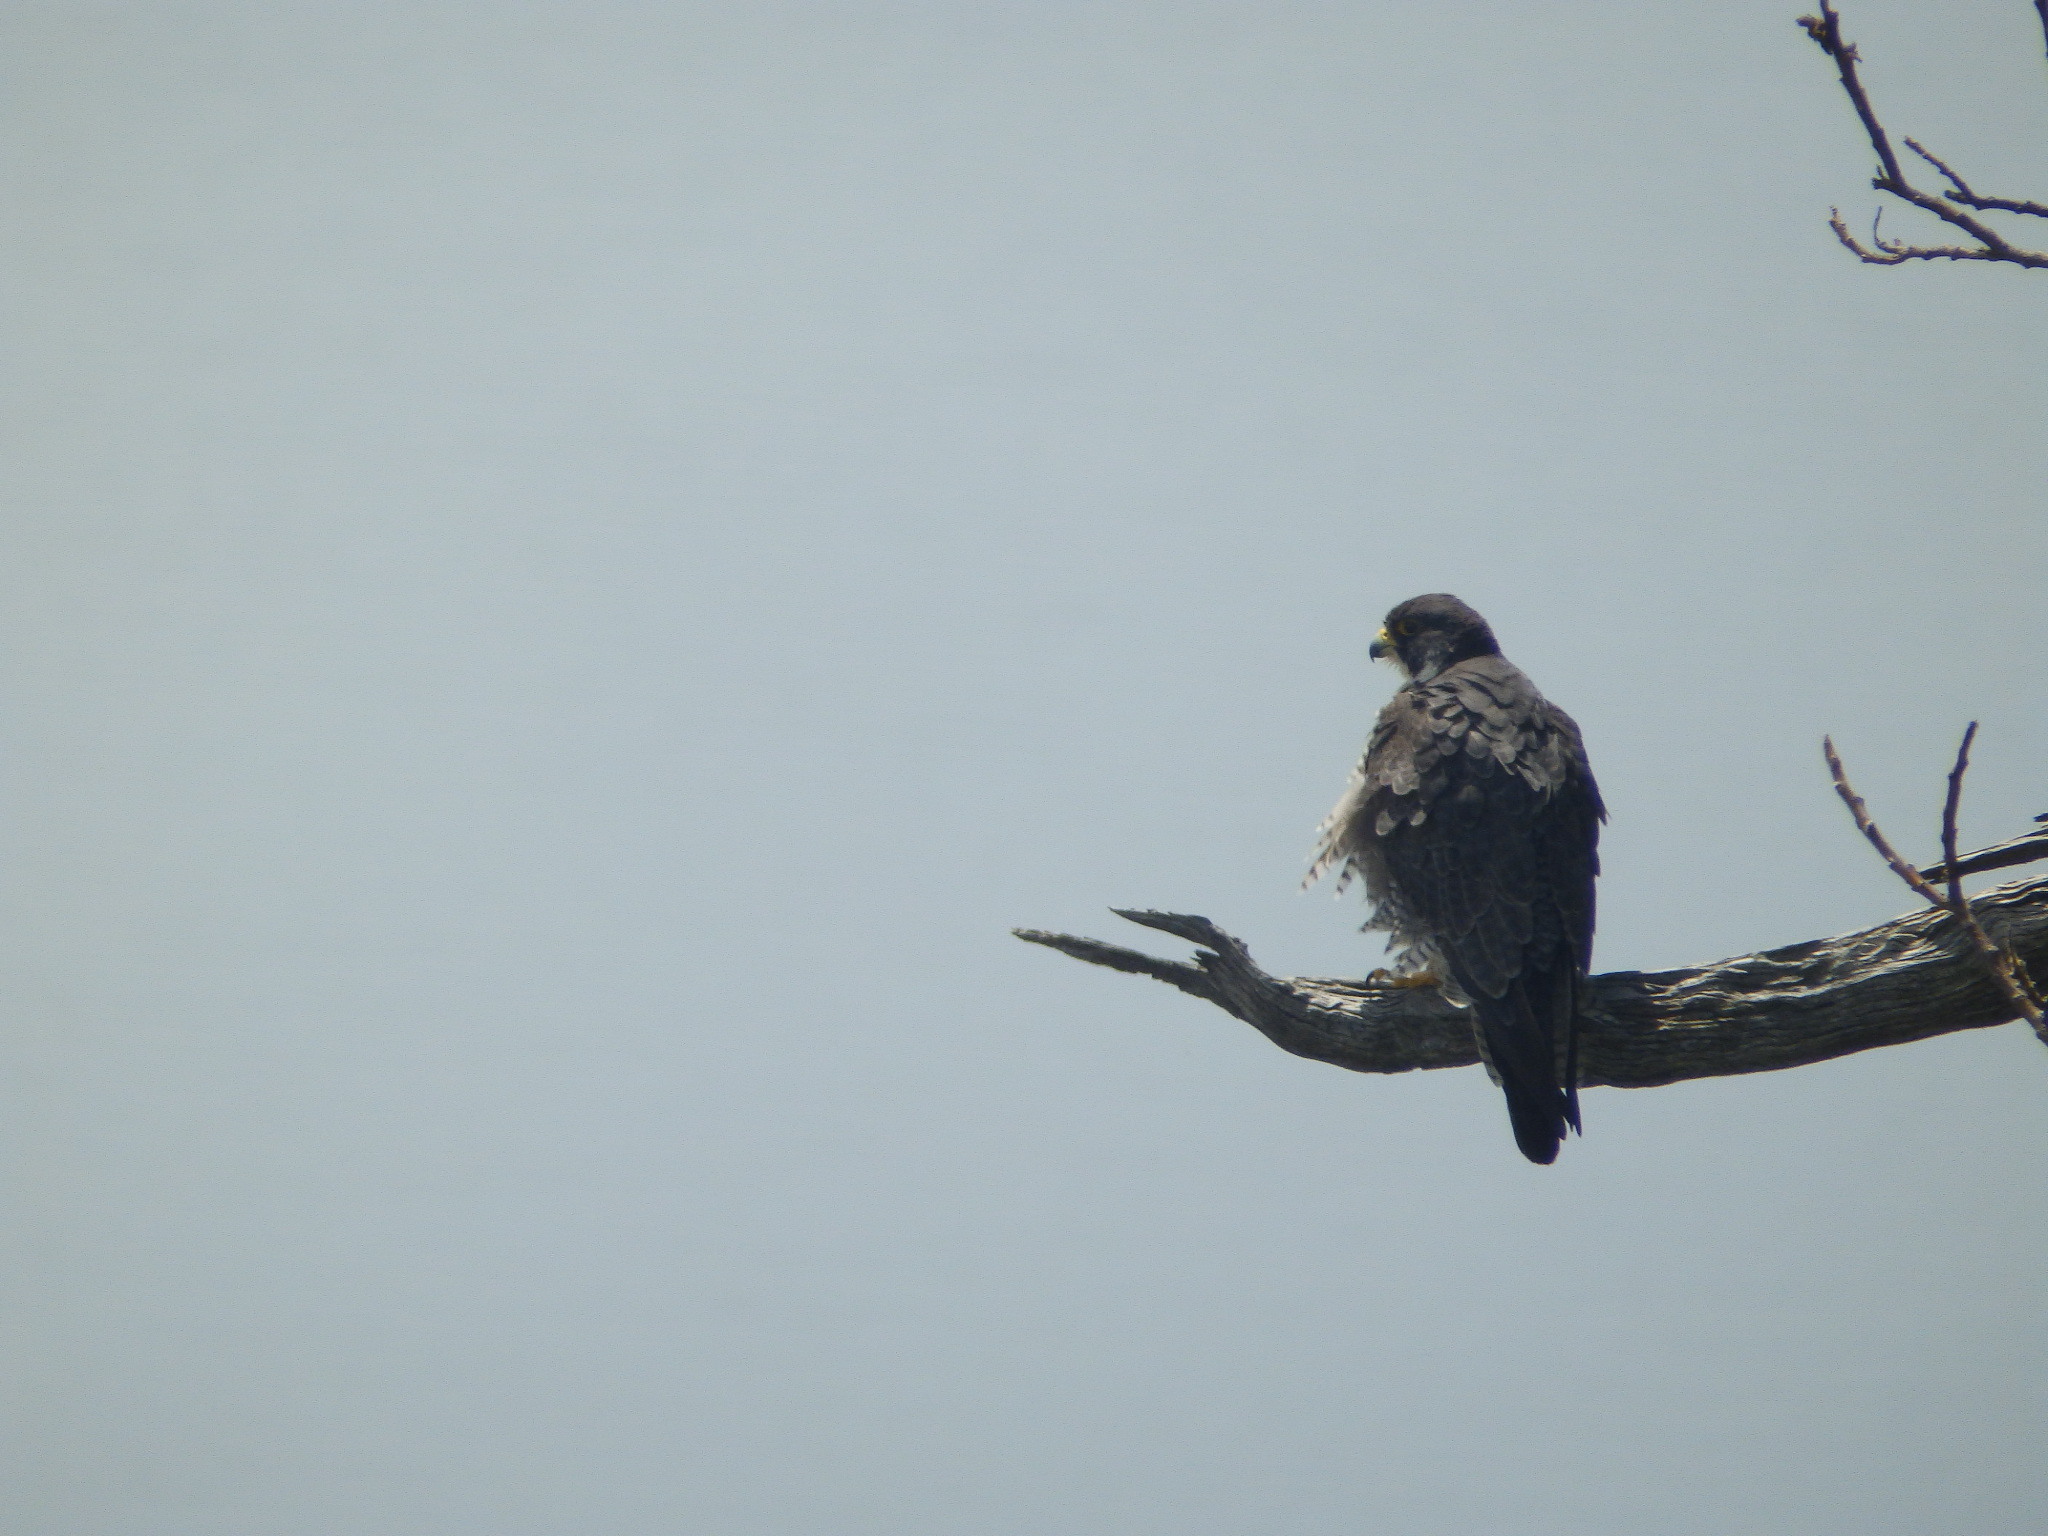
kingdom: Animalia
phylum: Chordata
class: Aves
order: Falconiformes
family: Falconidae
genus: Falco
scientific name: Falco peregrinus
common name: Peregrine falcon
